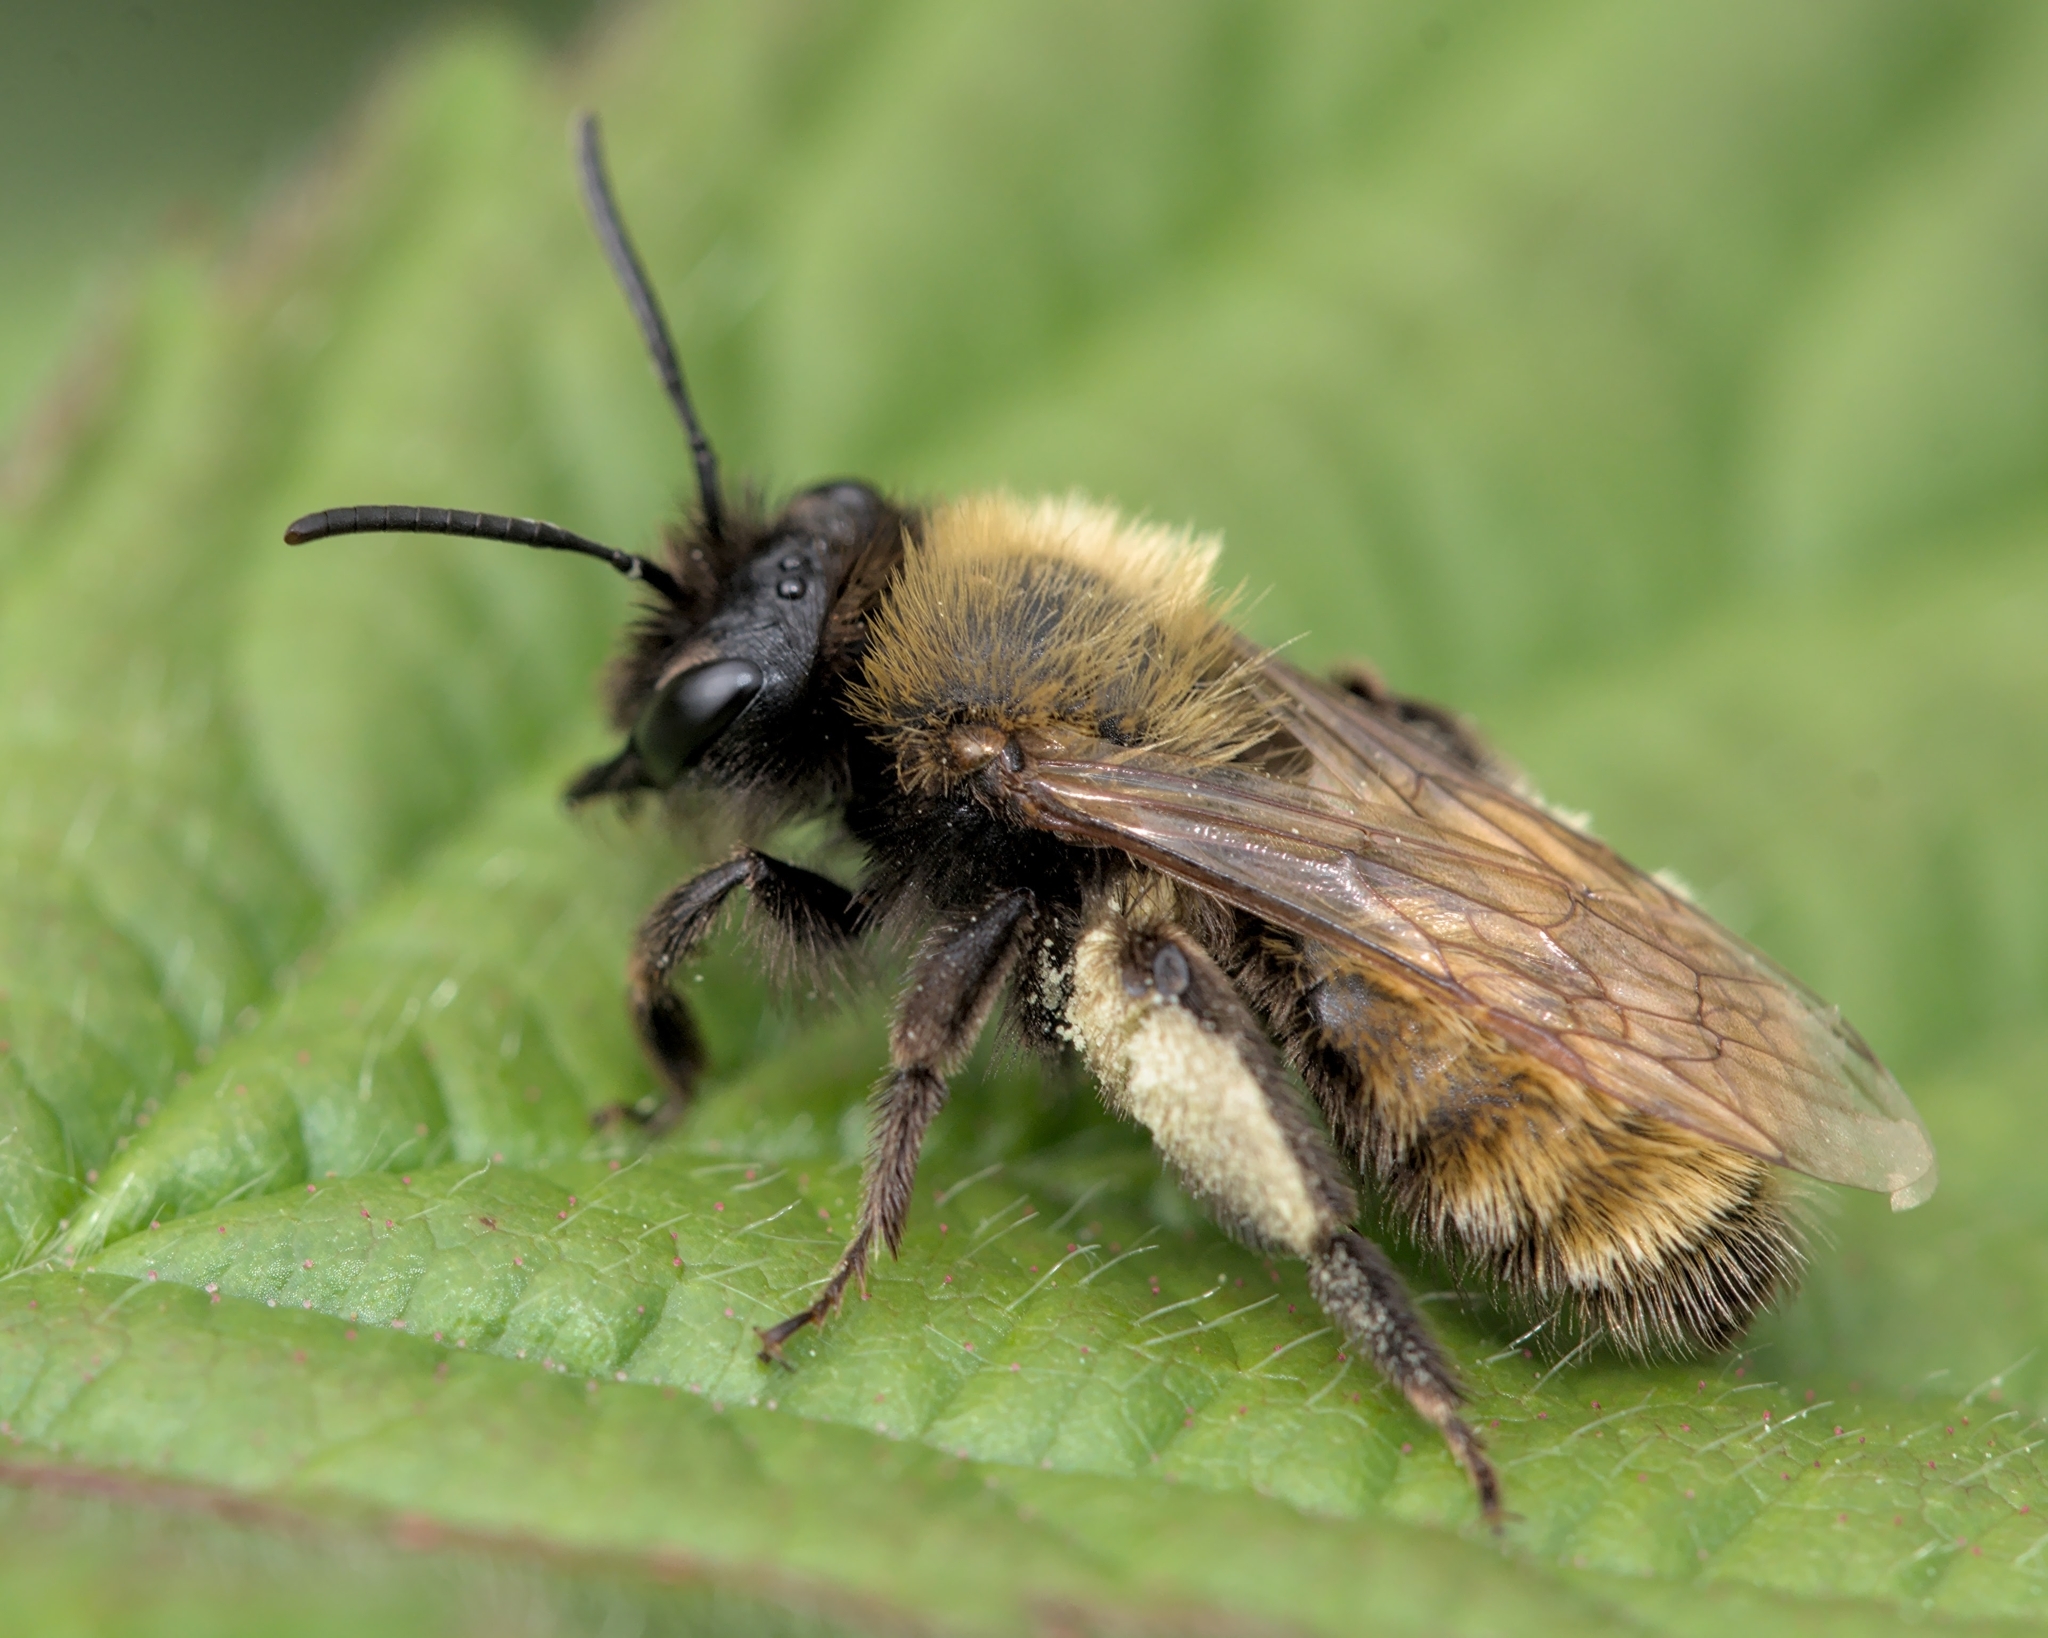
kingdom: Animalia
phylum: Arthropoda
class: Insecta
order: Hymenoptera
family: Andrenidae
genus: Andrena
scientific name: Andrena fulva
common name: Tawny mining bee
